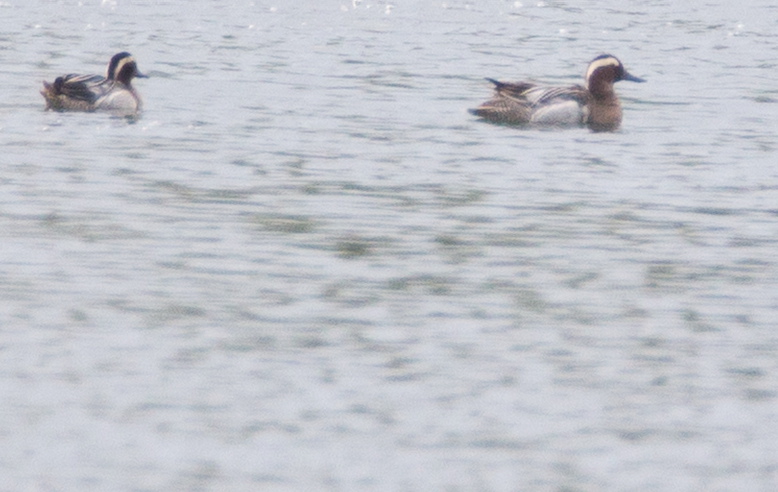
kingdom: Animalia
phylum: Chordata
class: Aves
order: Anseriformes
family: Anatidae
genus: Spatula
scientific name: Spatula querquedula
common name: Garganey
